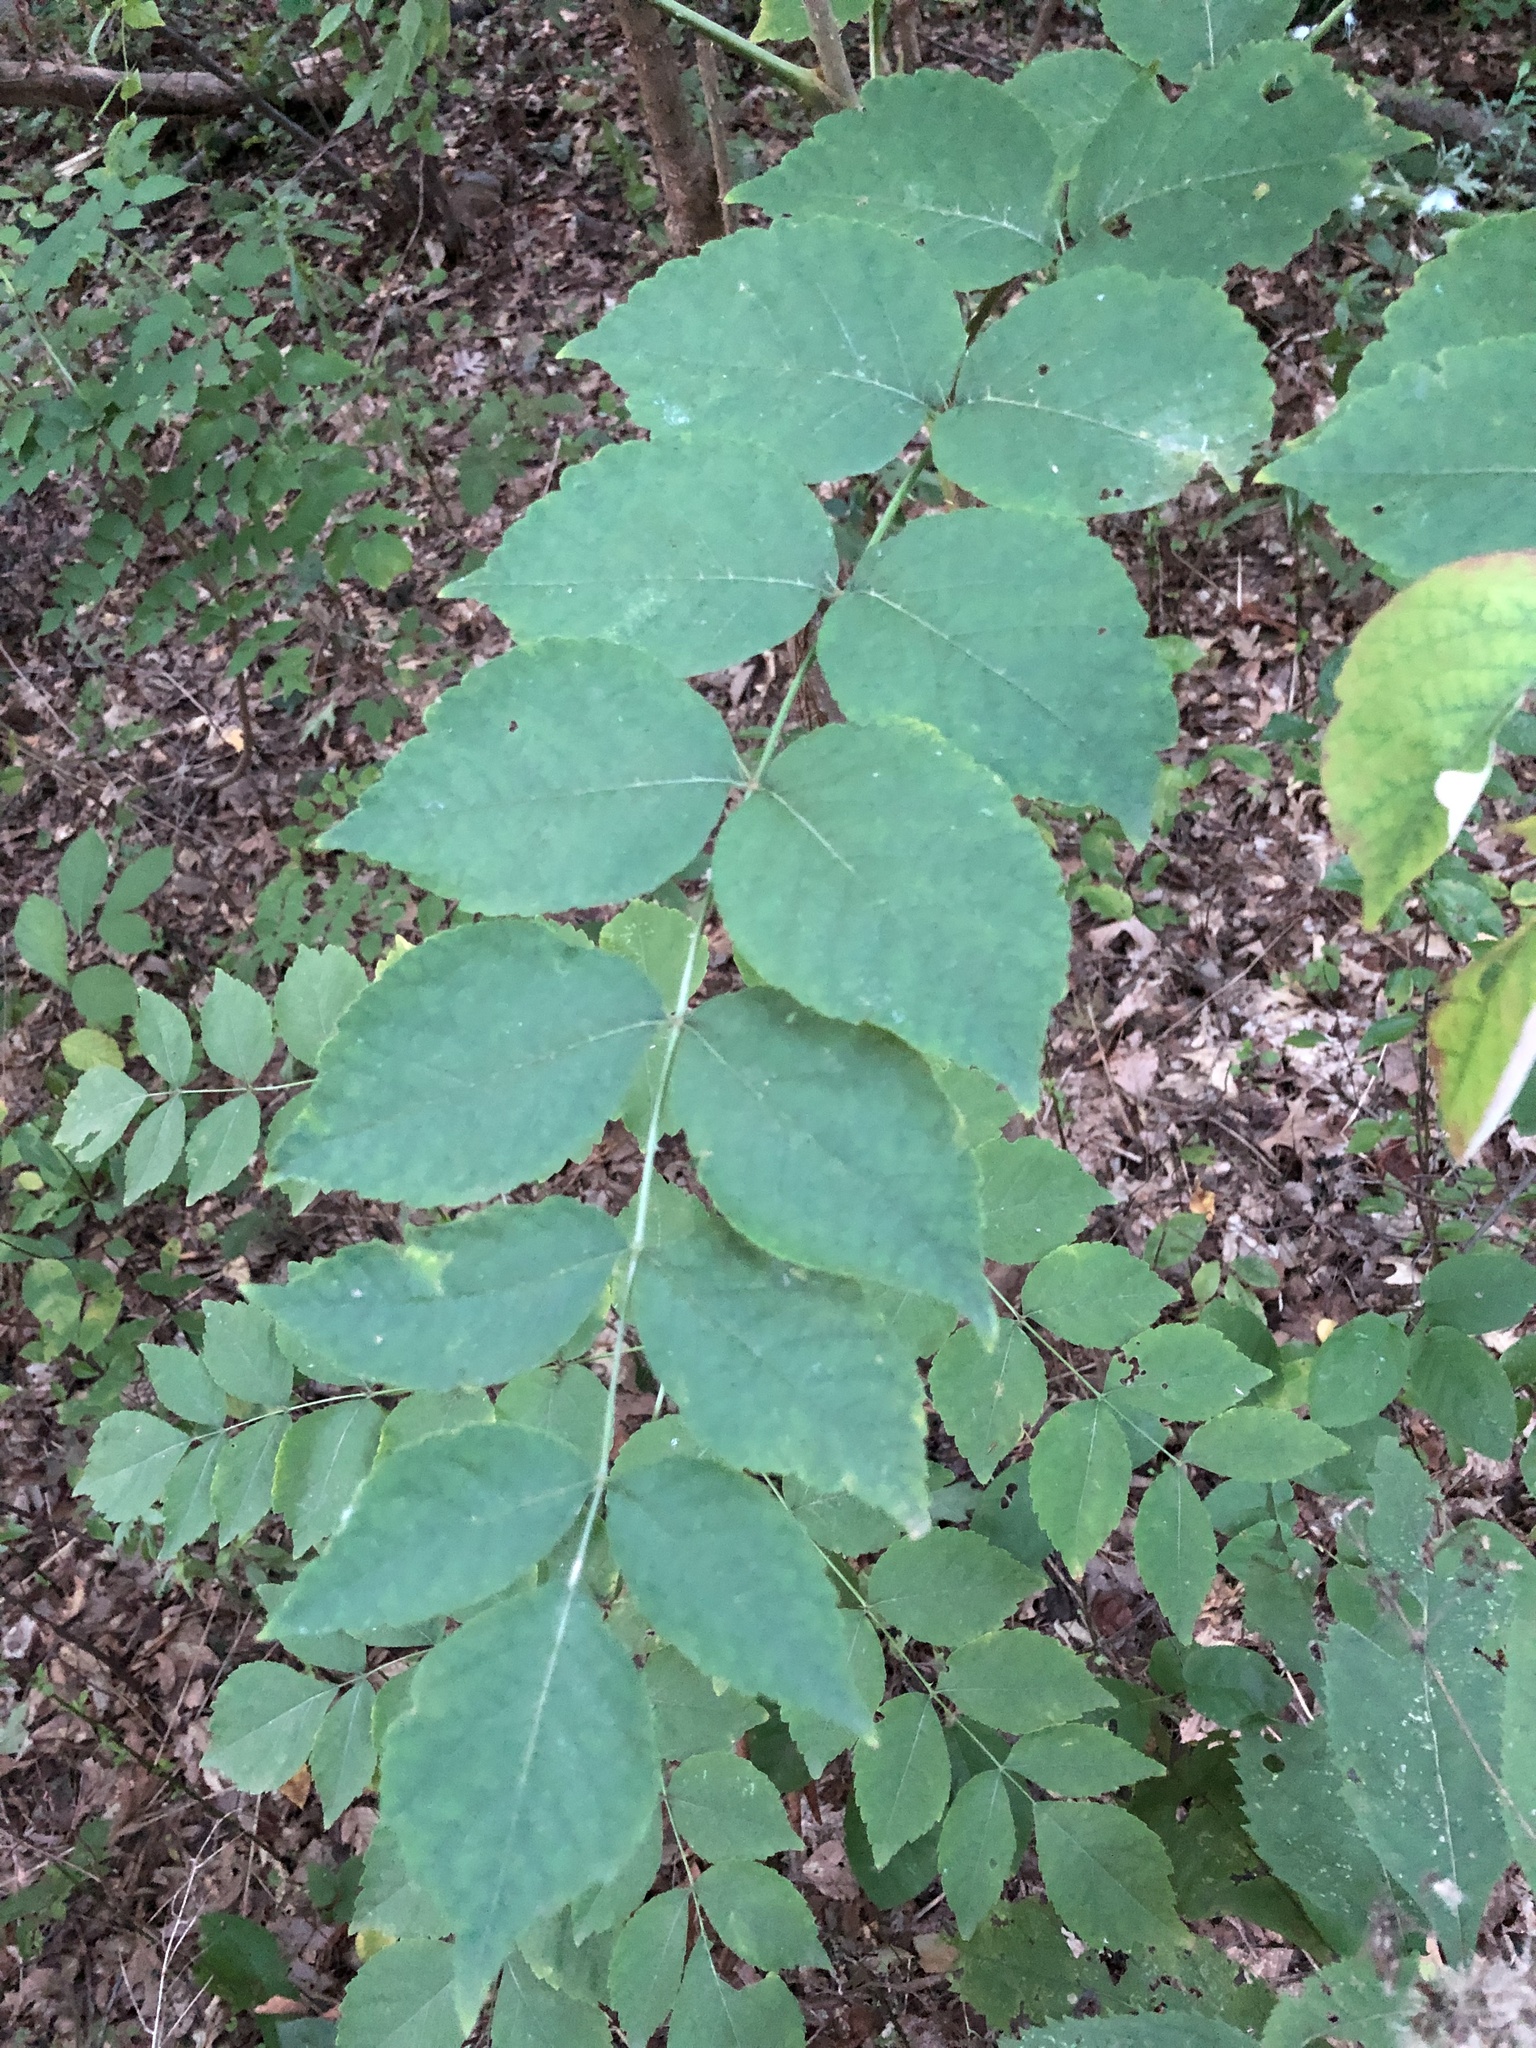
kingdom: Plantae
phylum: Tracheophyta
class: Magnoliopsida
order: Apiales
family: Araliaceae
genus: Aralia
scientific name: Aralia elata
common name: Japanese angelica-tree
